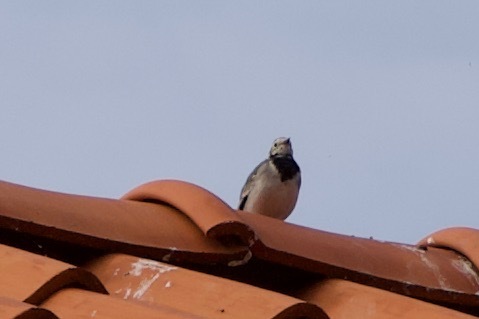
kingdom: Animalia
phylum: Chordata
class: Aves
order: Passeriformes
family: Motacillidae
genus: Motacilla
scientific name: Motacilla alba
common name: White wagtail
